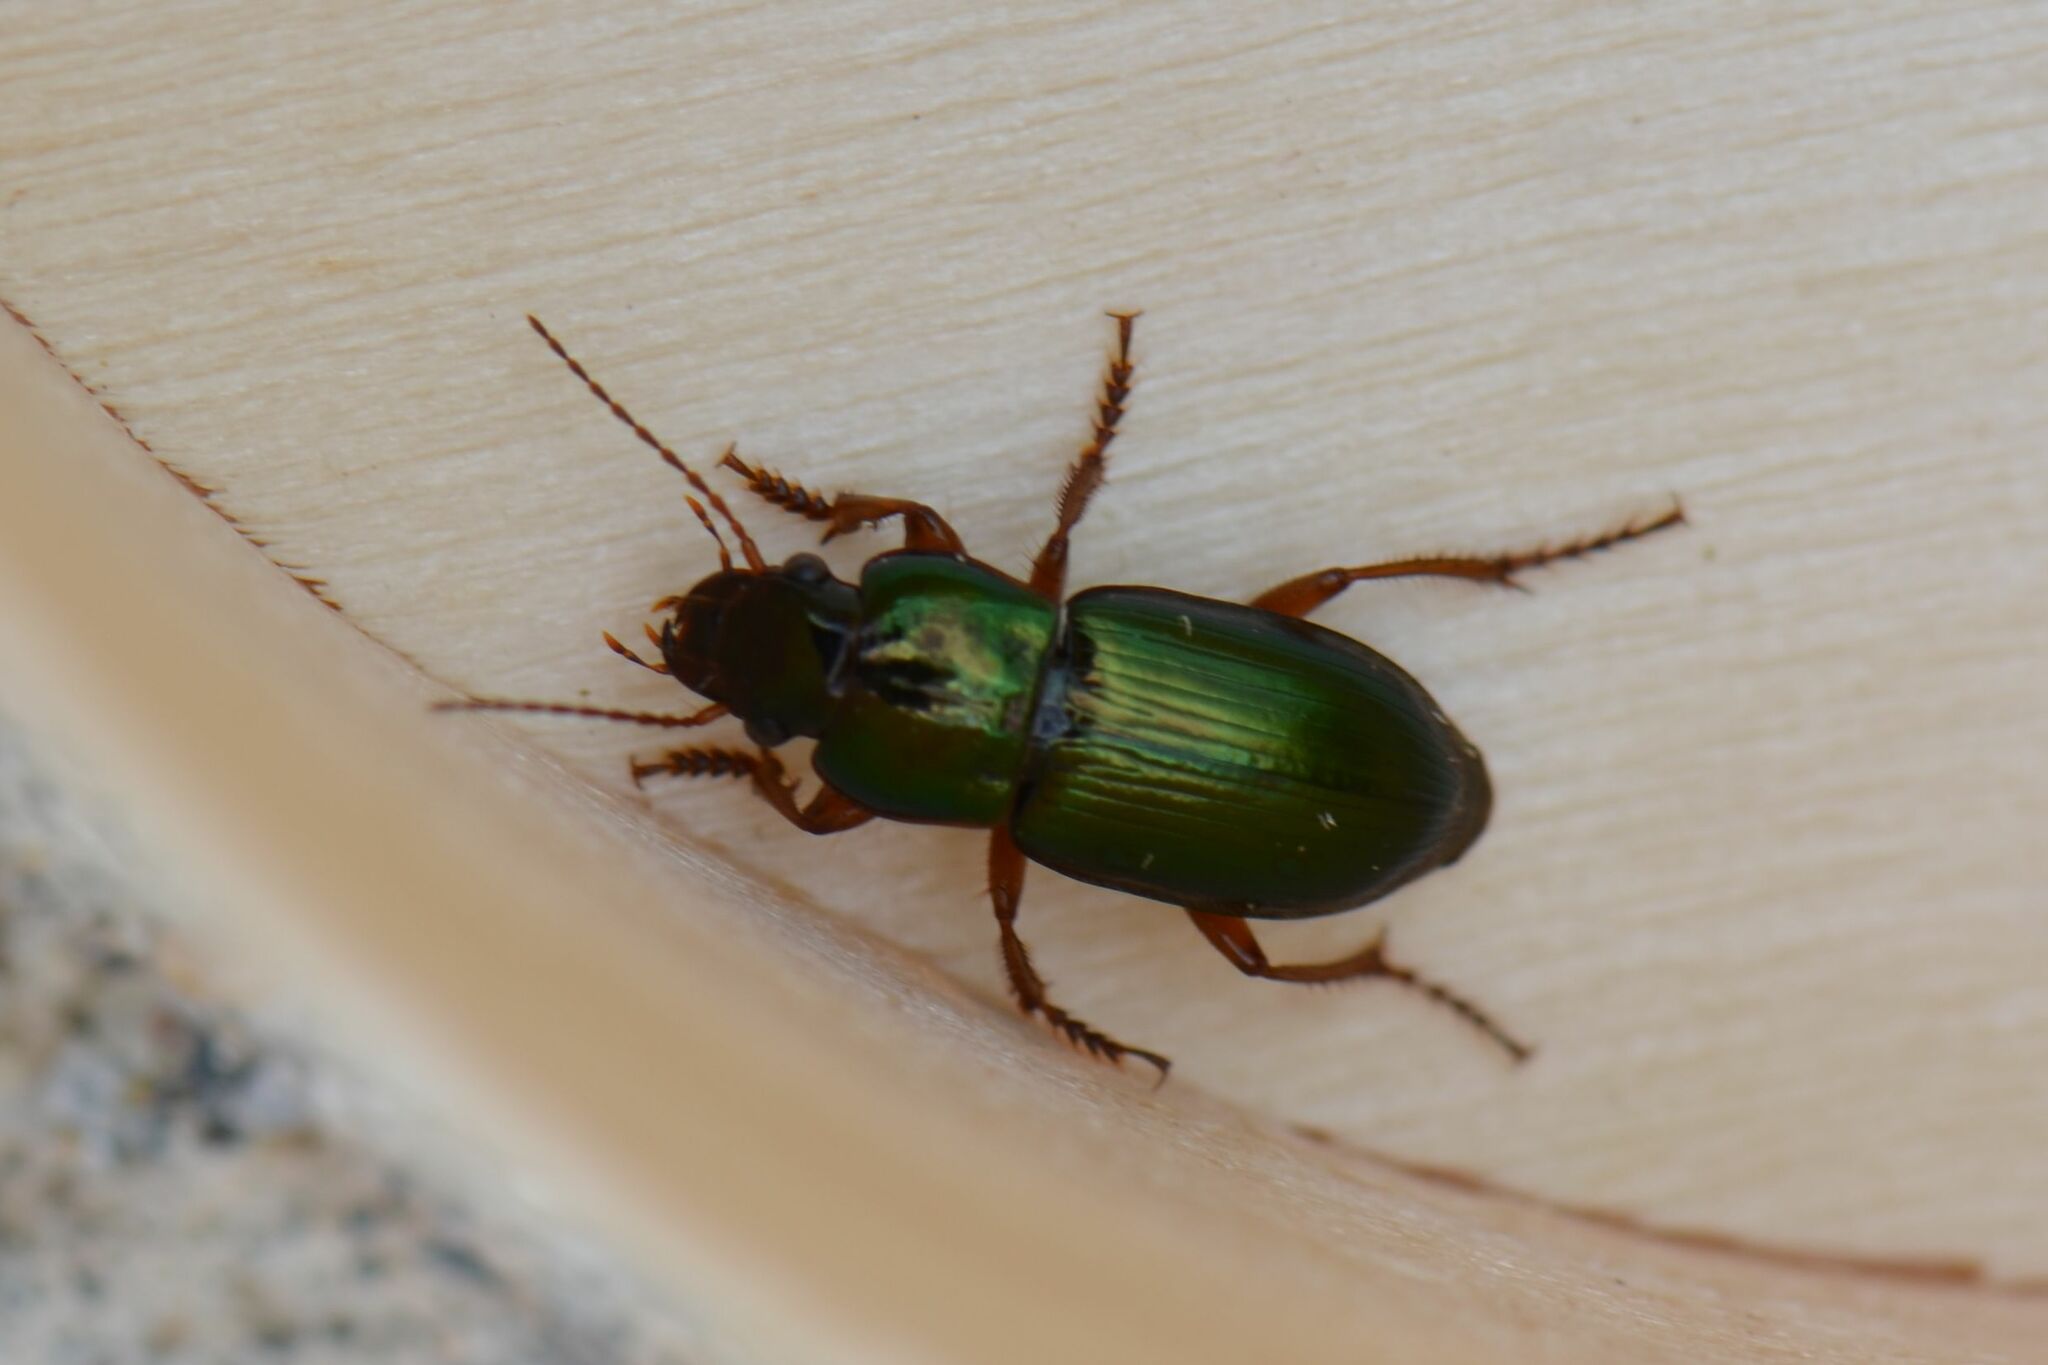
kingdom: Animalia
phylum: Arthropoda
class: Insecta
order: Coleoptera
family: Carabidae
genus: Harpalus
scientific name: Harpalus affinis
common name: Polychrome harp ground beetle
